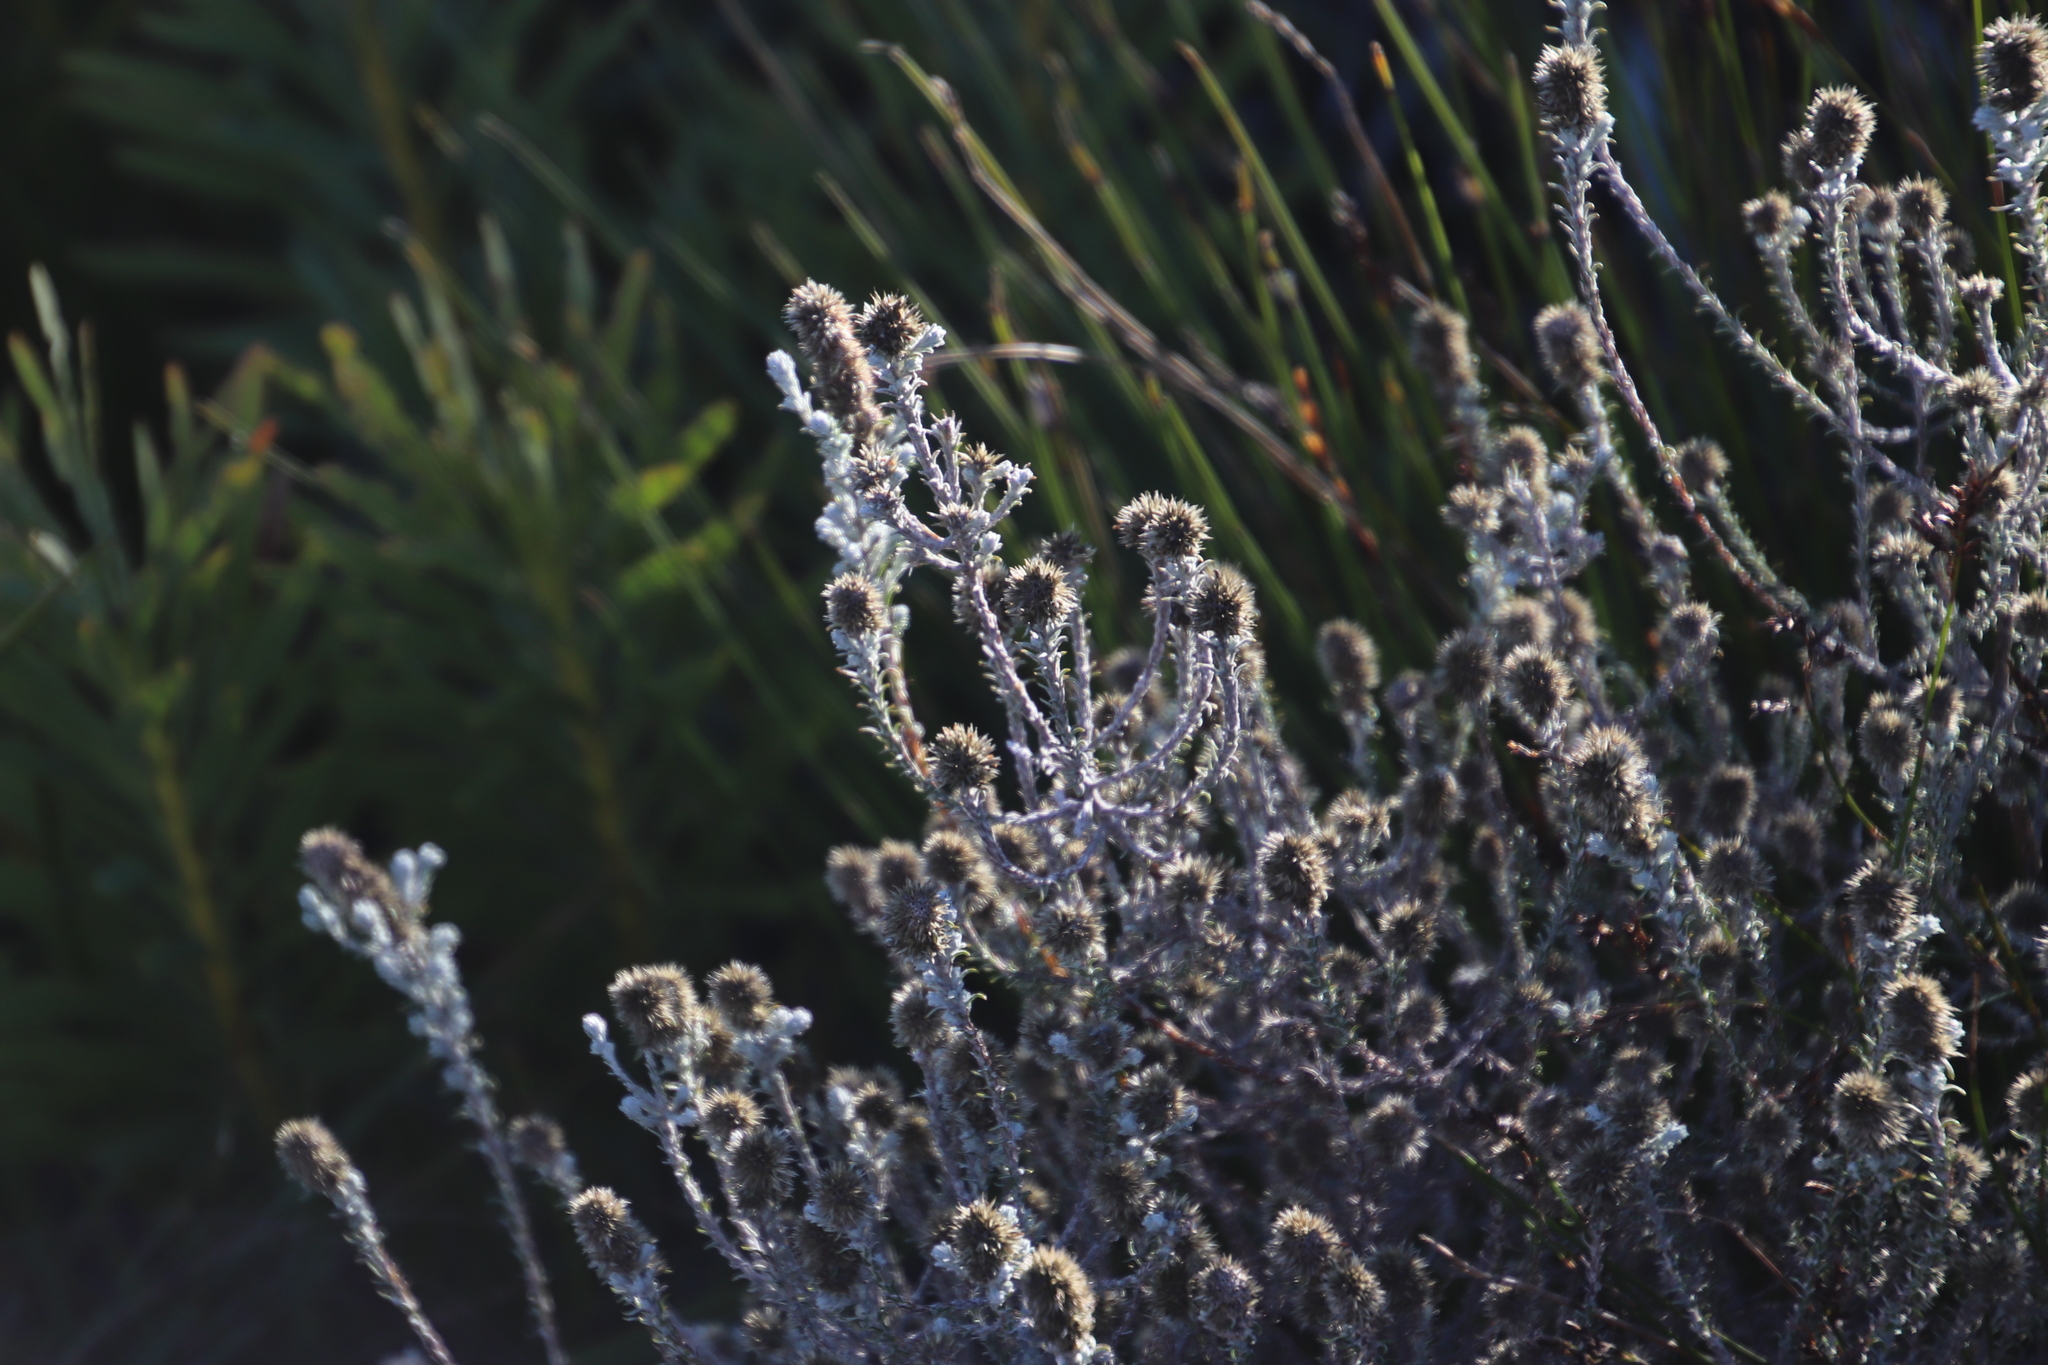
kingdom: Plantae
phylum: Tracheophyta
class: Magnoliopsida
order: Asterales
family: Asteraceae
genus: Seriphium
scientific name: Seriphium spirale
